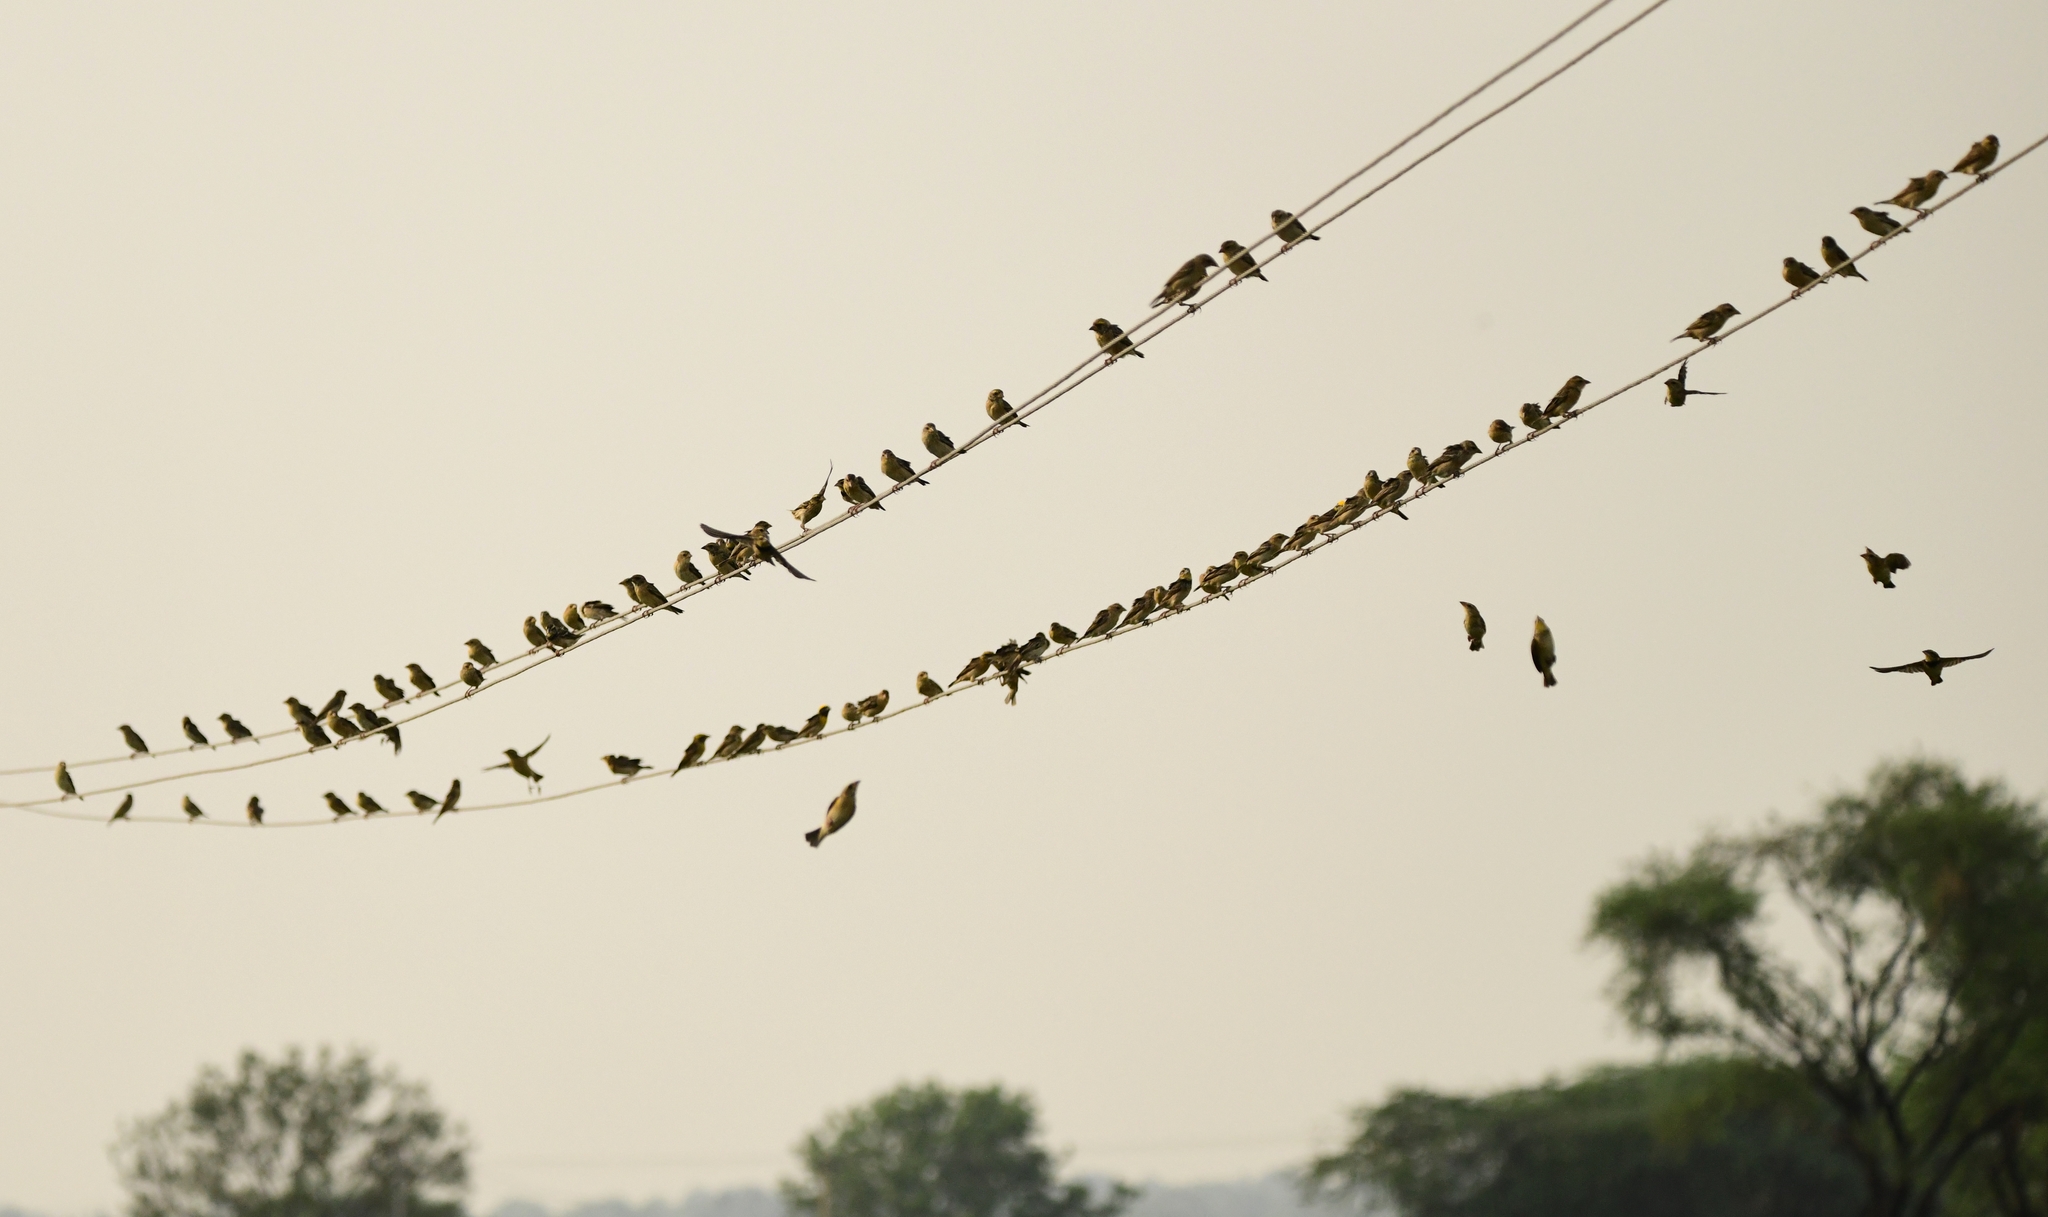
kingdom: Animalia
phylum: Chordata
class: Aves
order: Passeriformes
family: Ploceidae
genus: Ploceus
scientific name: Ploceus philippinus
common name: Baya weaver
